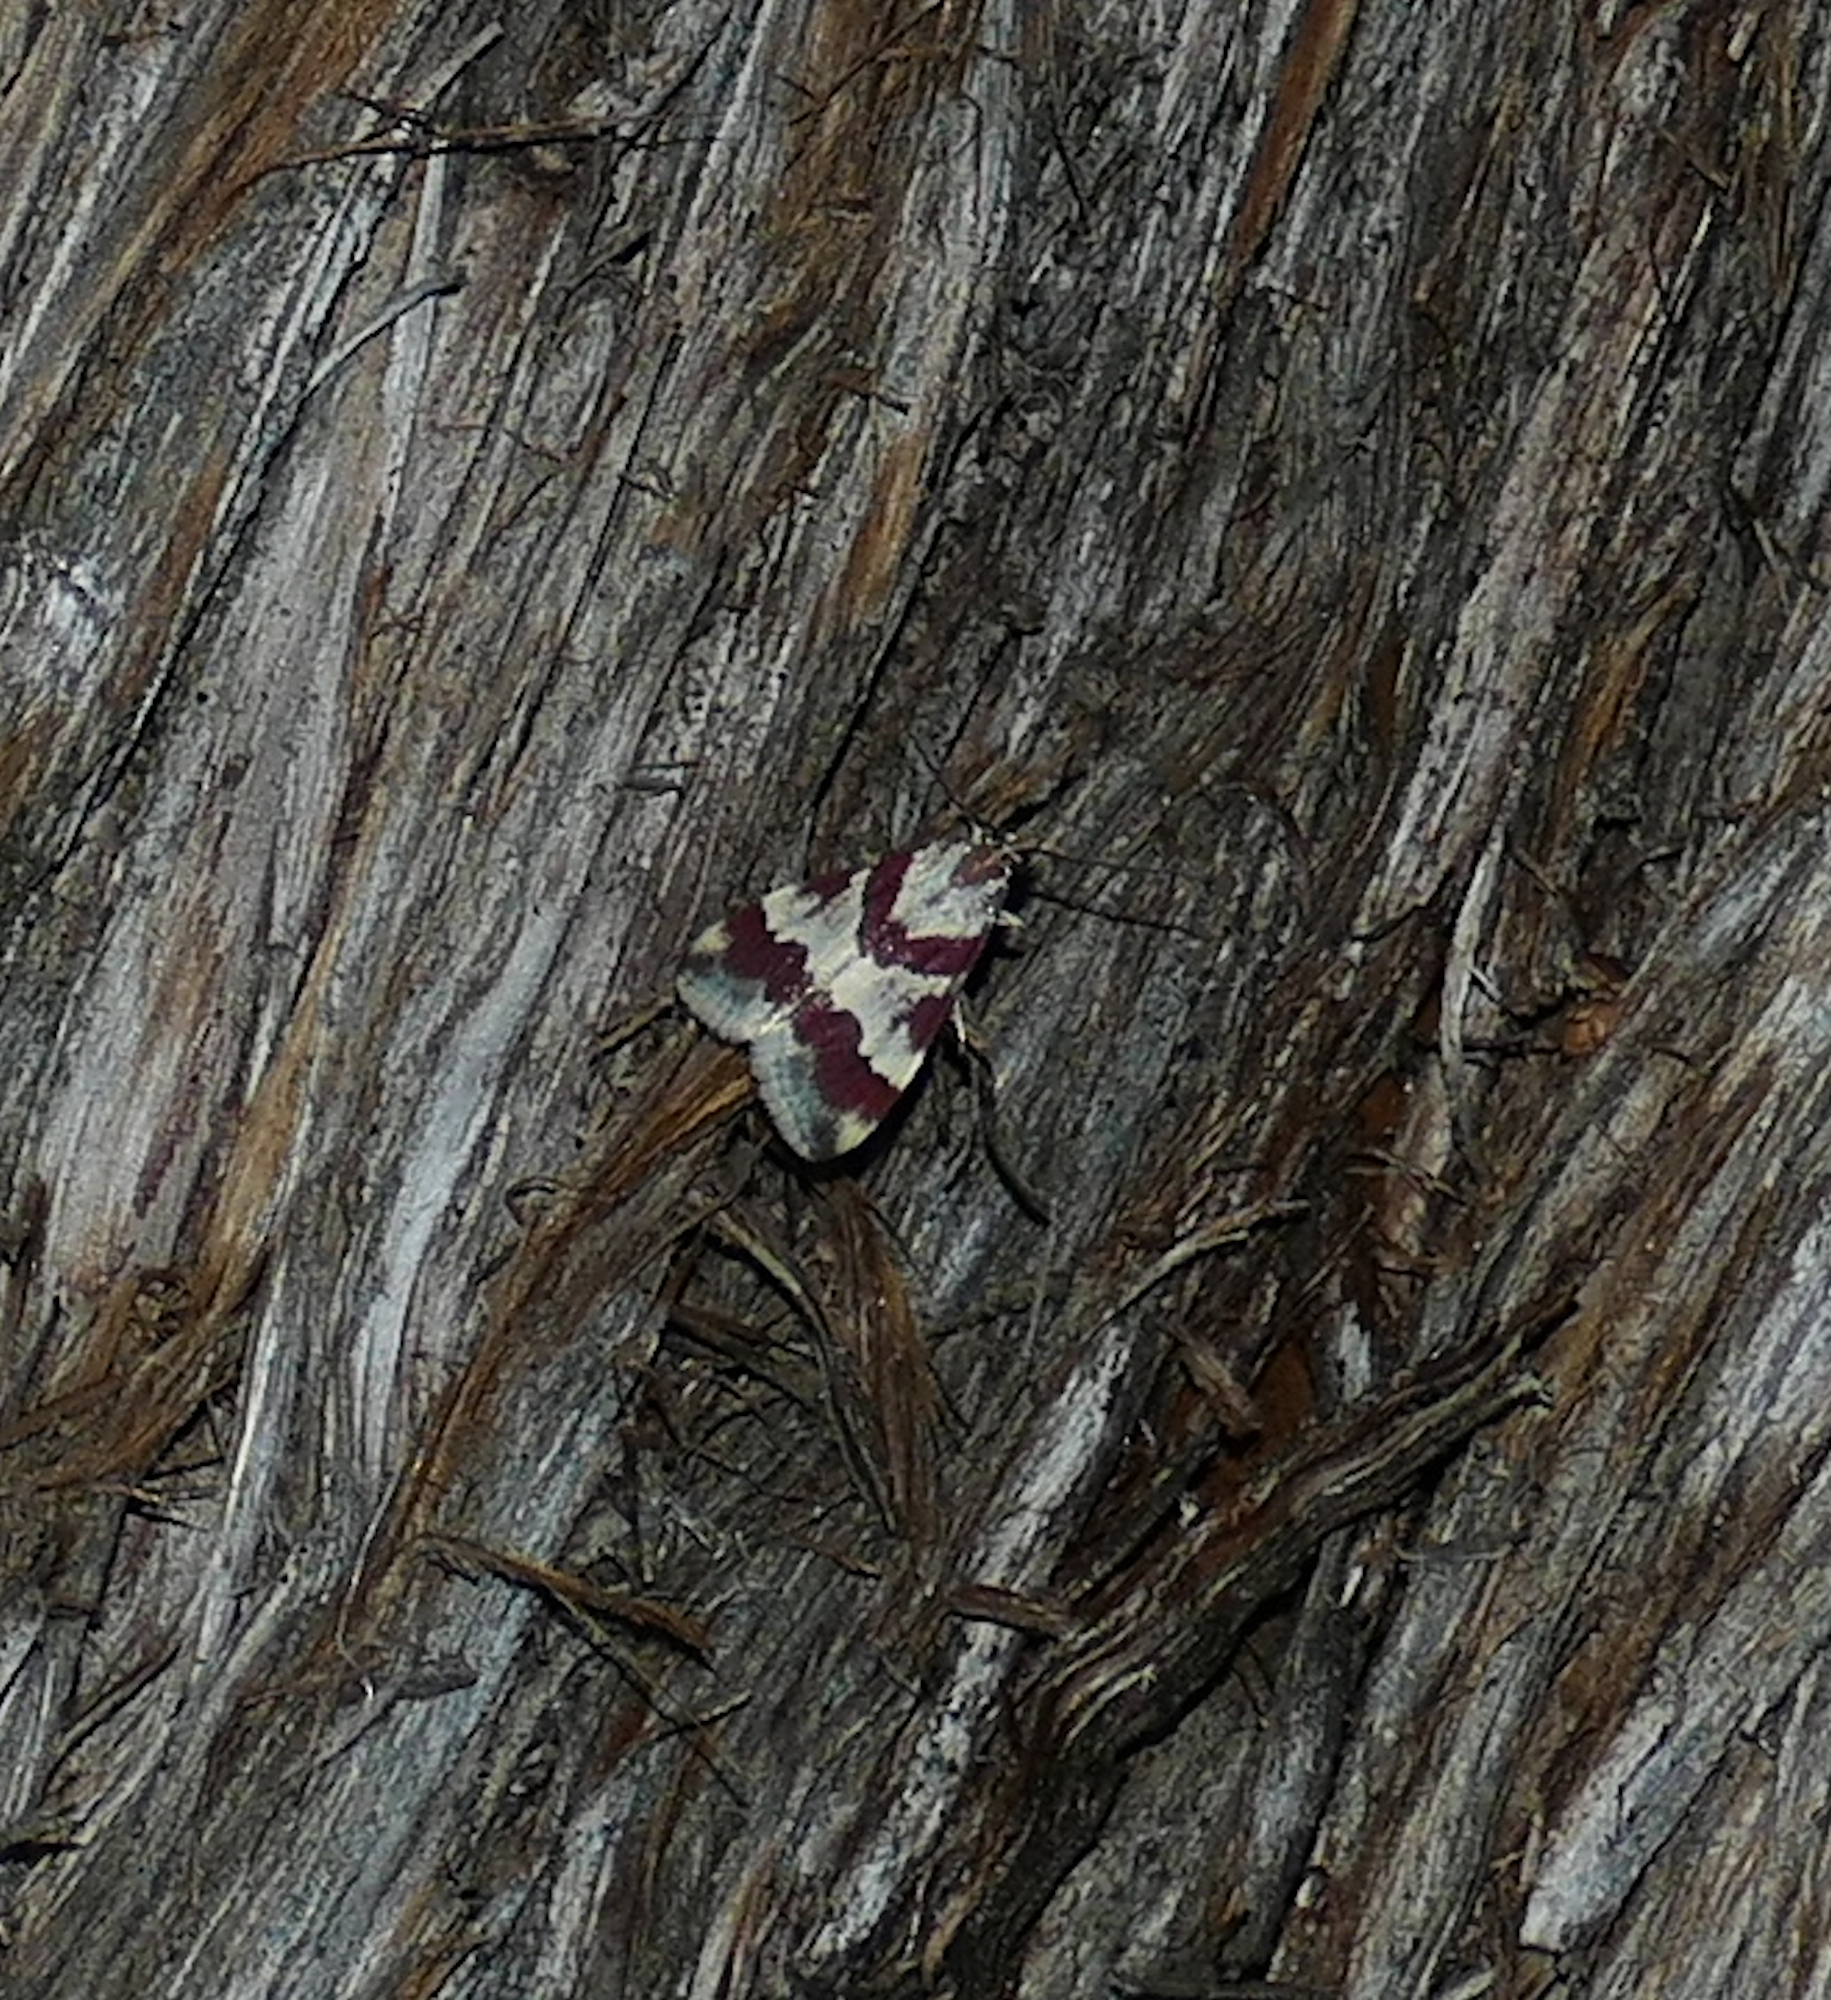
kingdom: Animalia
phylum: Arthropoda
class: Insecta
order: Lepidoptera
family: Crambidae
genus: Noctuelia
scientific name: Noctuelia Mimoschinia rufofascialis
